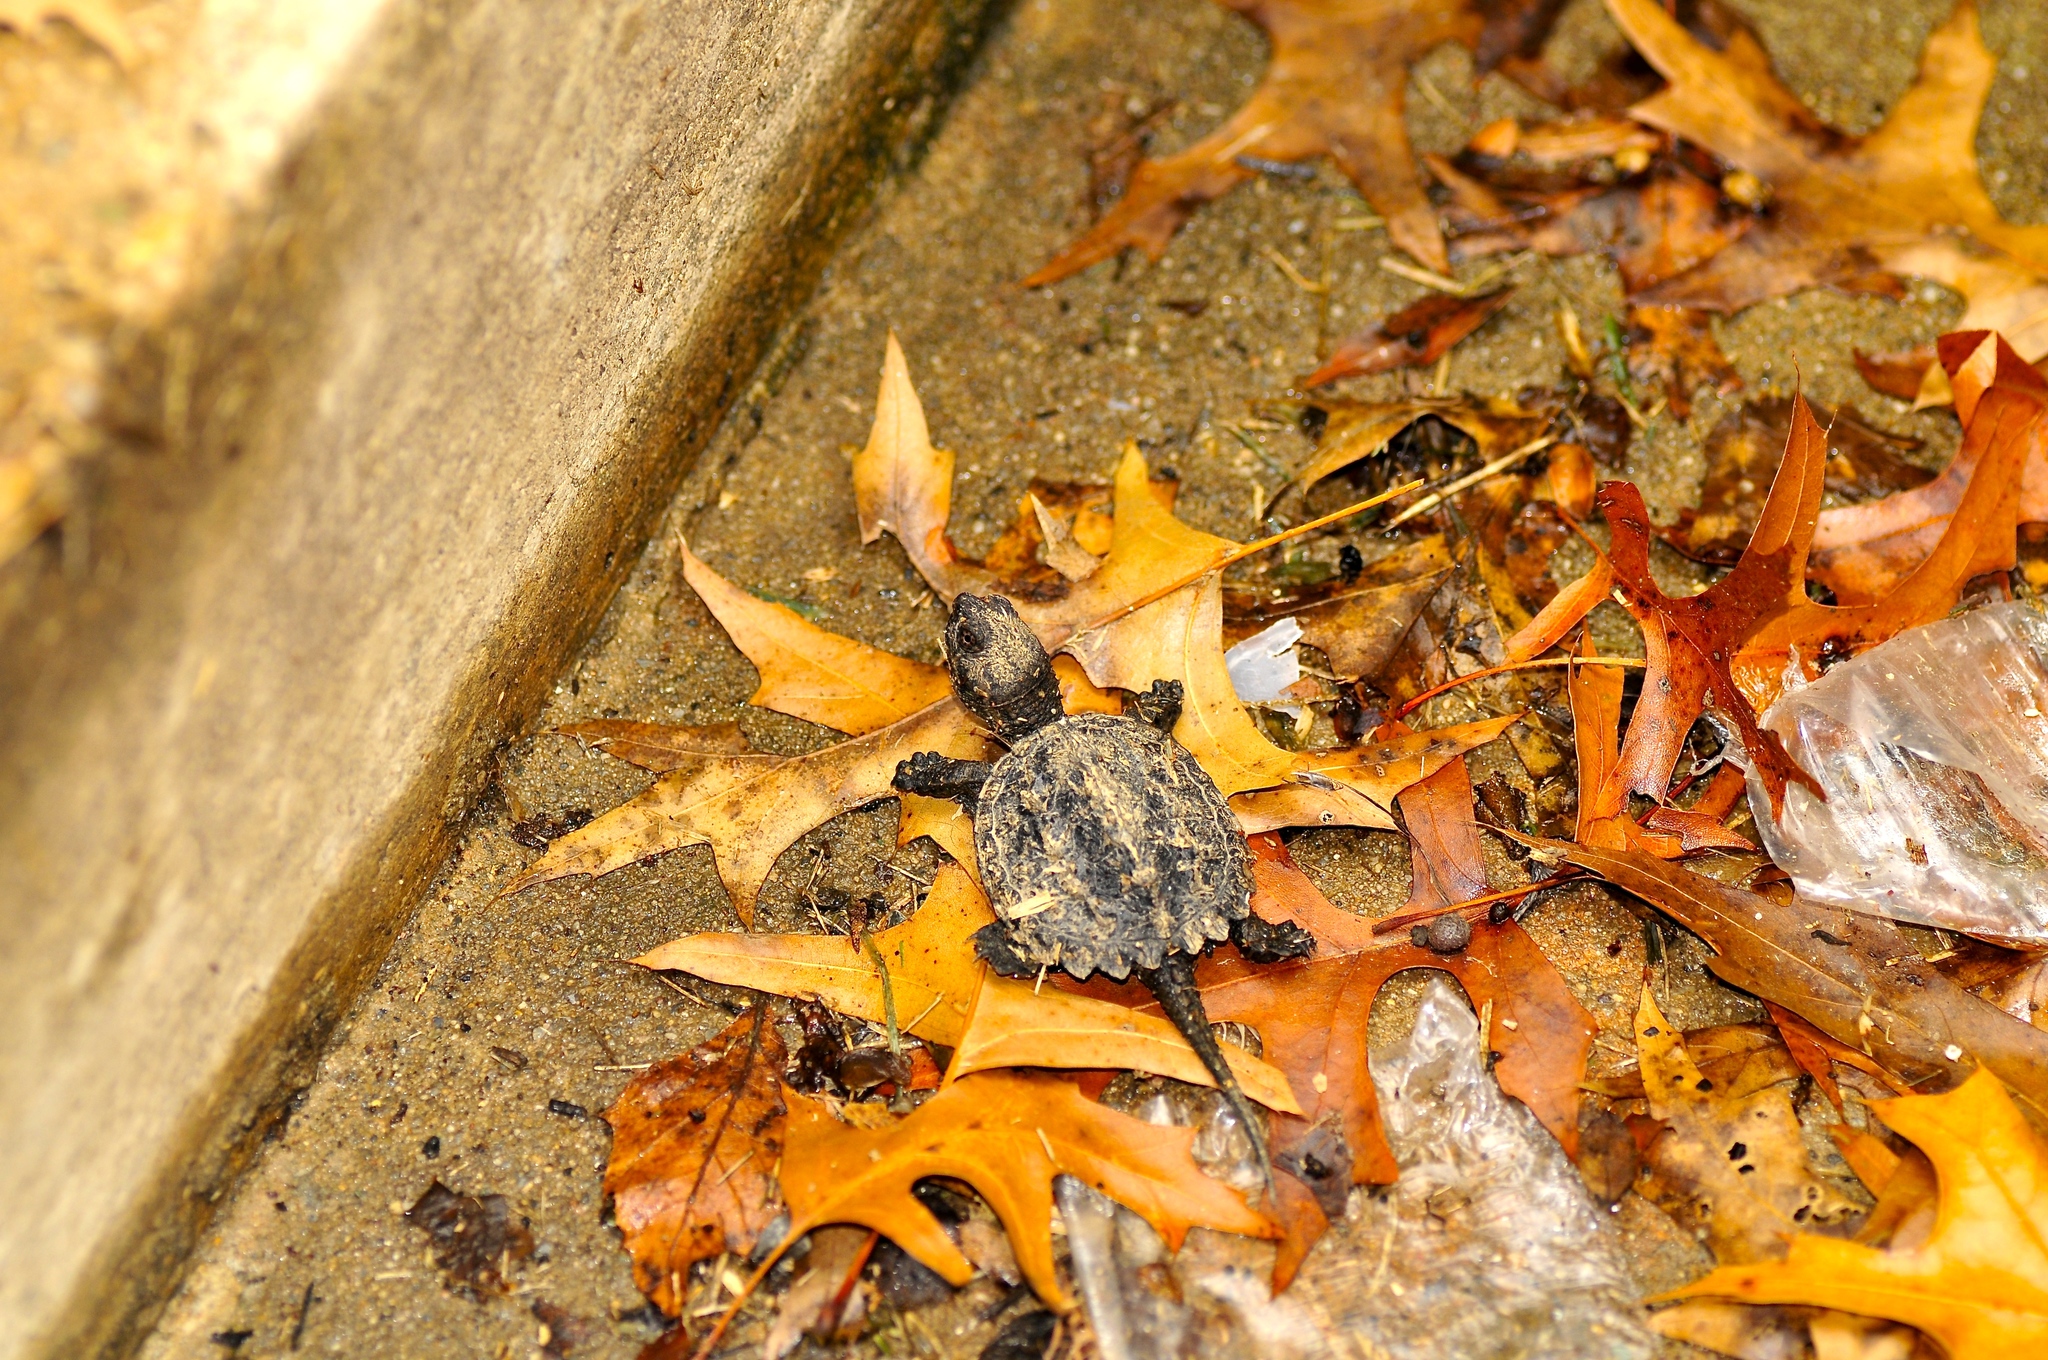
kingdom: Animalia
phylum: Chordata
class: Testudines
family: Chelydridae
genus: Chelydra
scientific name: Chelydra serpentina
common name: Common snapping turtle
